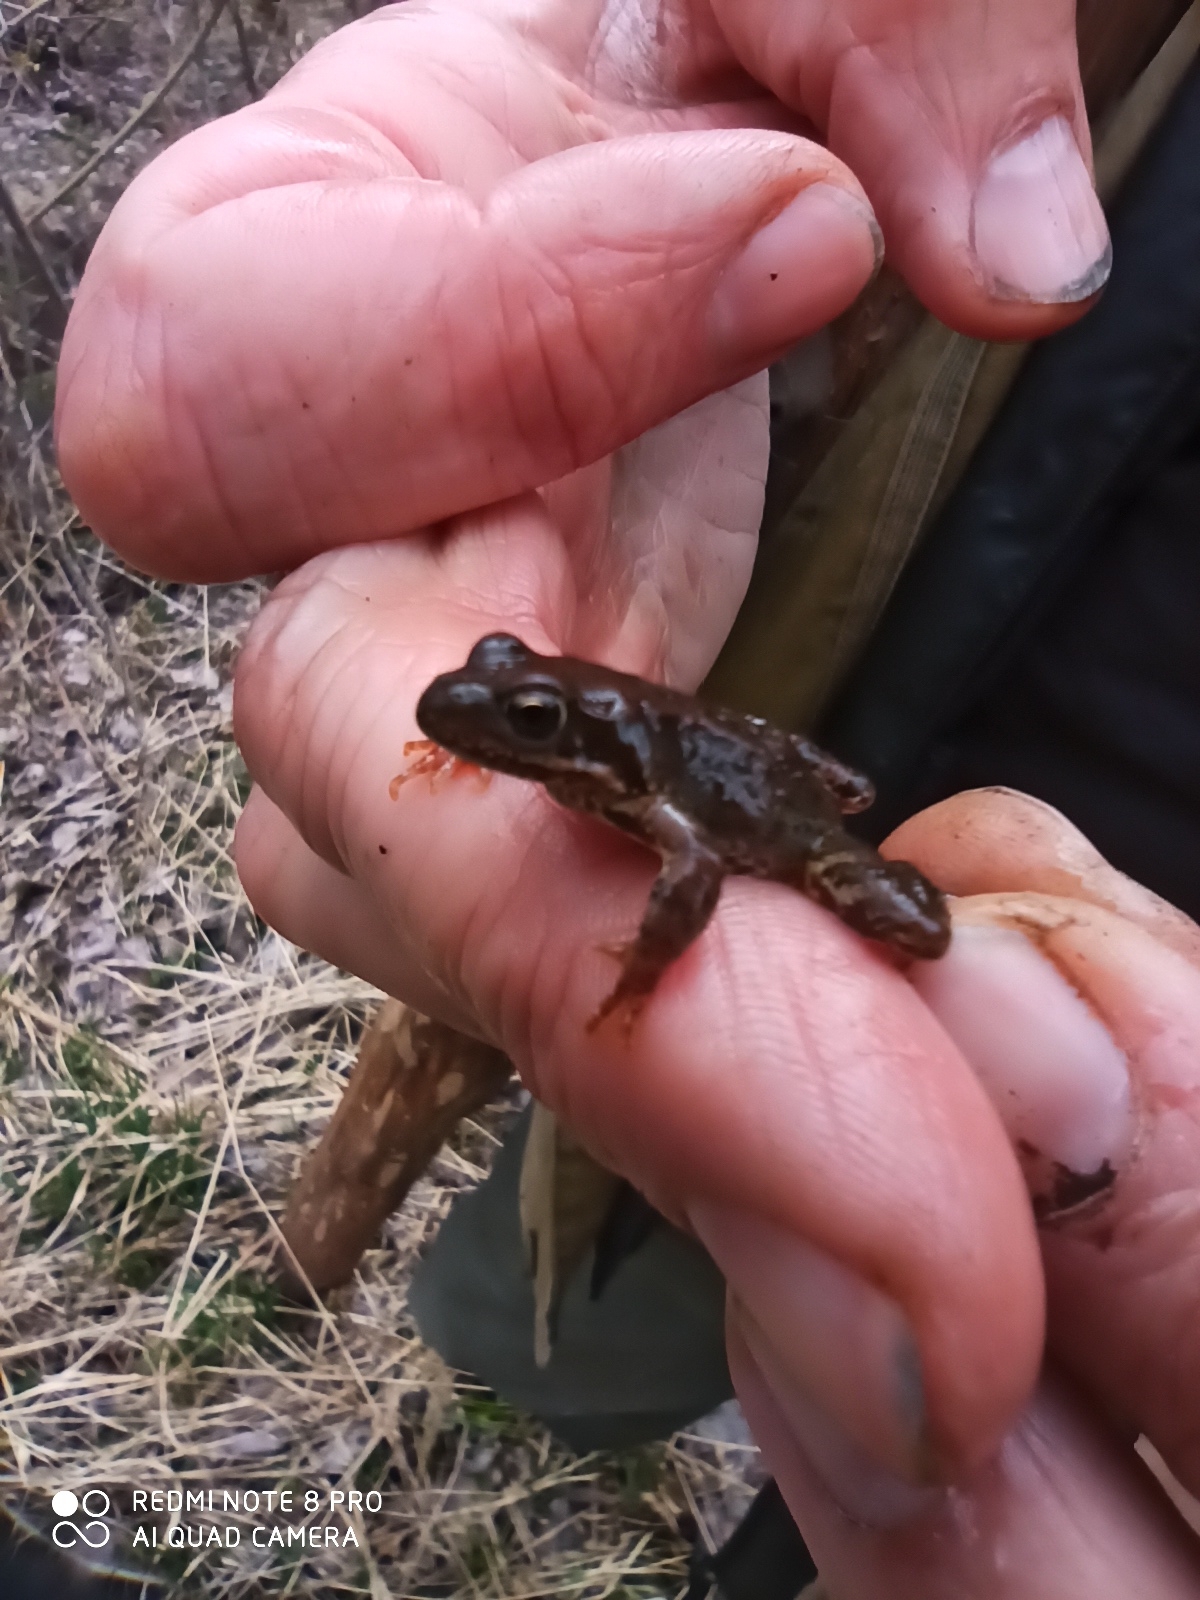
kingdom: Animalia
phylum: Chordata
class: Amphibia
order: Anura
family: Ranidae
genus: Rana
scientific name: Rana temporaria
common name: Common frog
